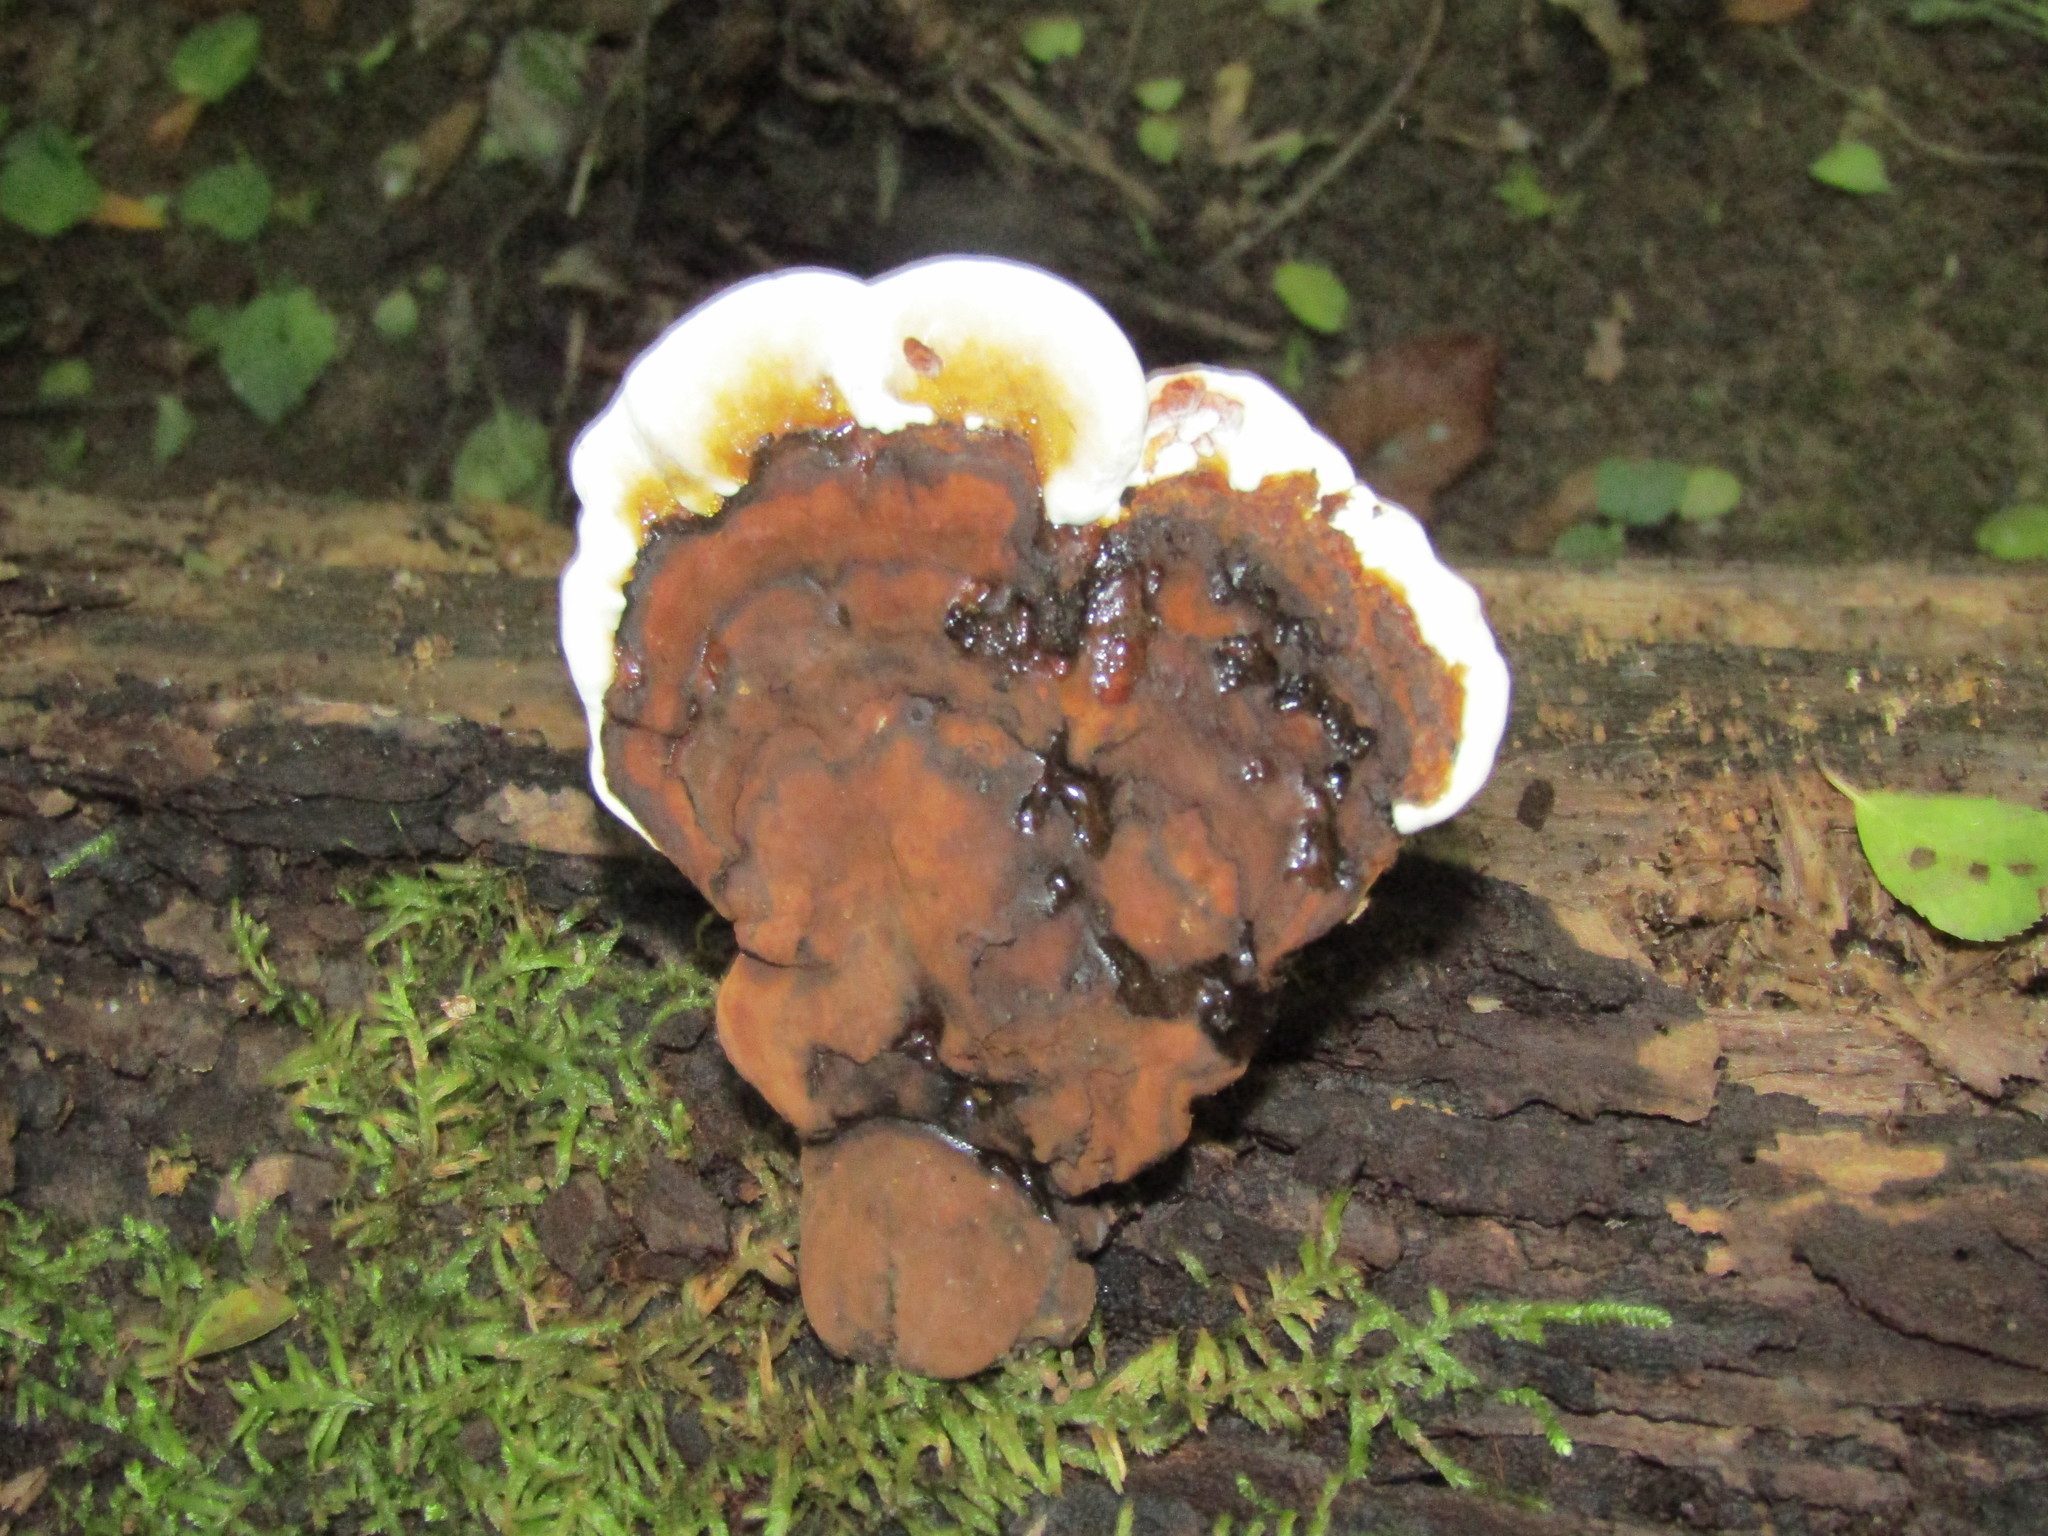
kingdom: Fungi
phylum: Basidiomycota
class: Agaricomycetes
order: Polyporales
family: Polyporaceae
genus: Ganoderma
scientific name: Ganoderma lobatum
